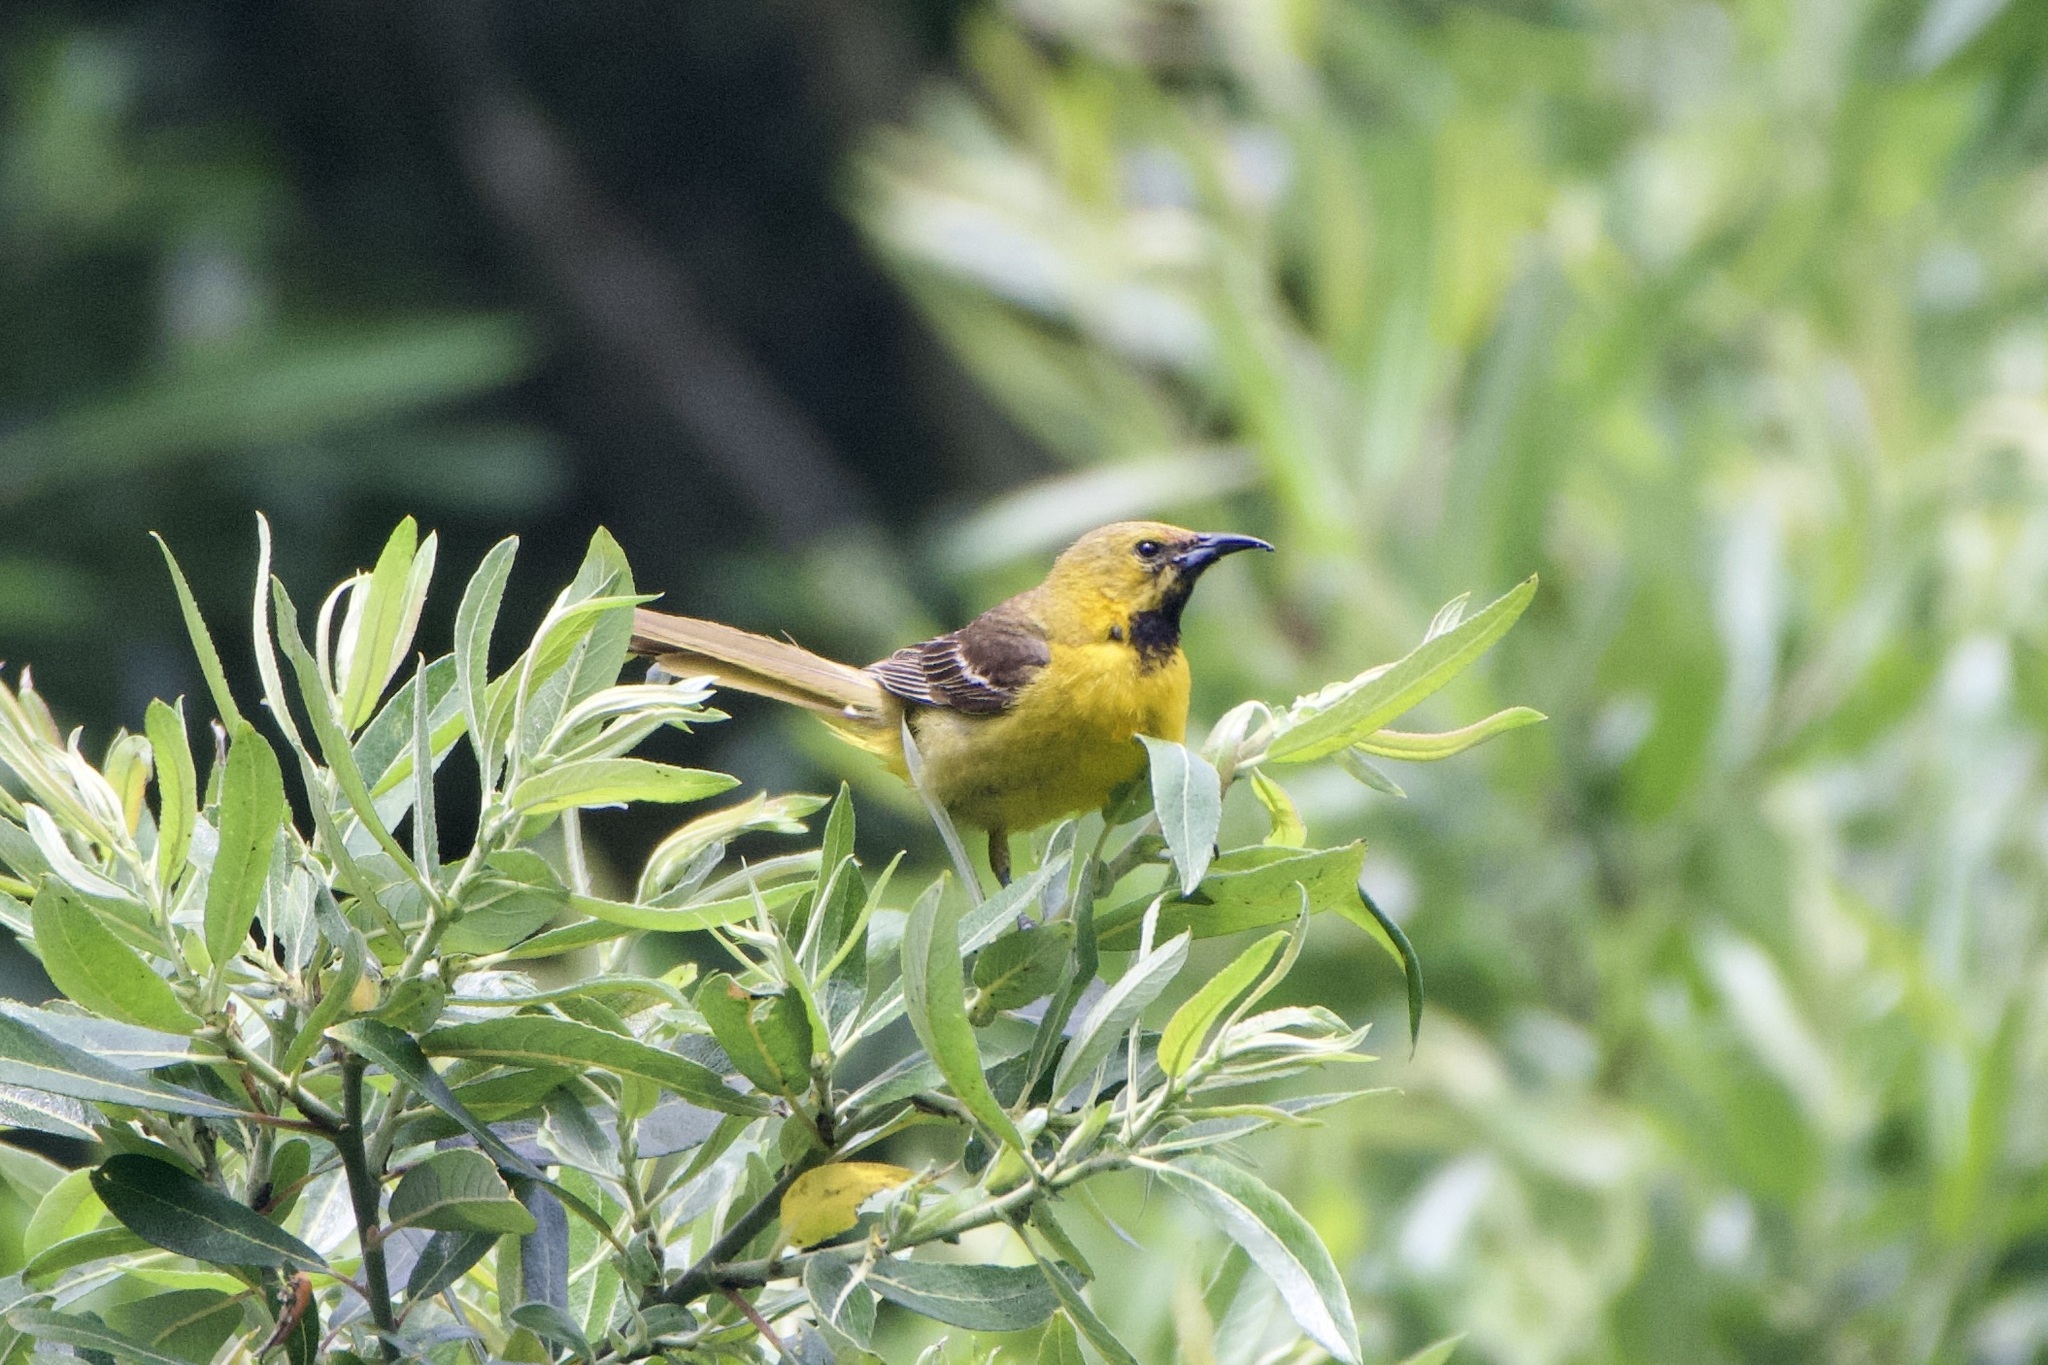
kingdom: Animalia
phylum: Chordata
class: Aves
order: Passeriformes
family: Icteridae
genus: Icterus
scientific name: Icterus cucullatus
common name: Hooded oriole
